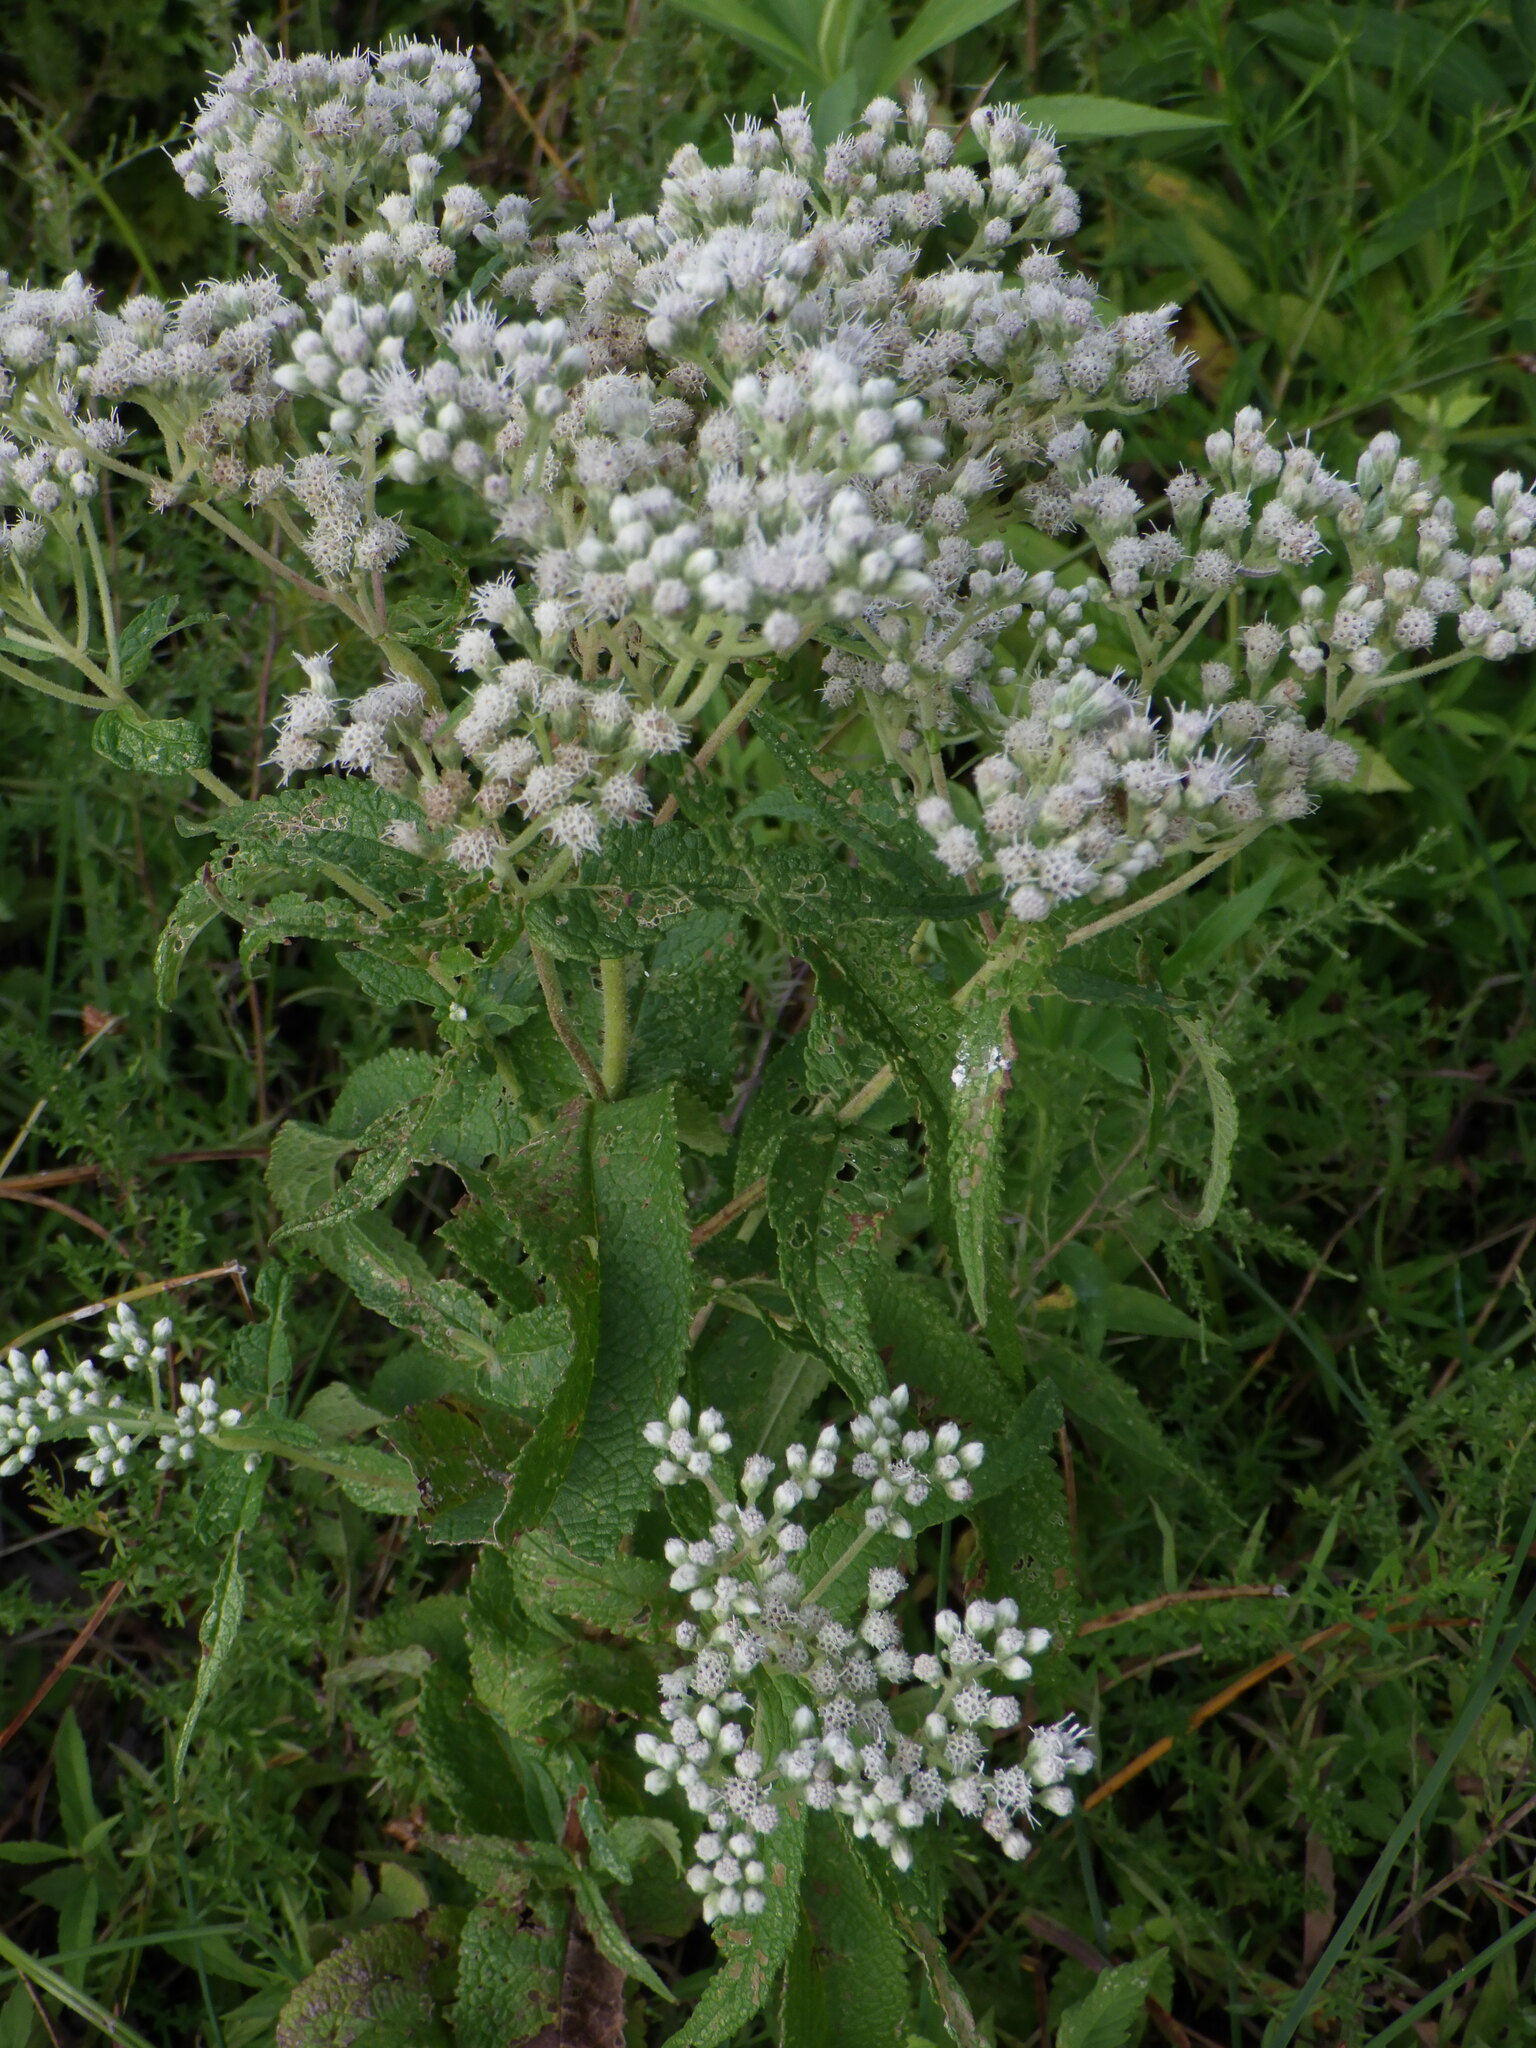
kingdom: Plantae
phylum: Tracheophyta
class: Magnoliopsida
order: Asterales
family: Asteraceae
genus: Eupatorium
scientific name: Eupatorium perfoliatum
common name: Boneset
